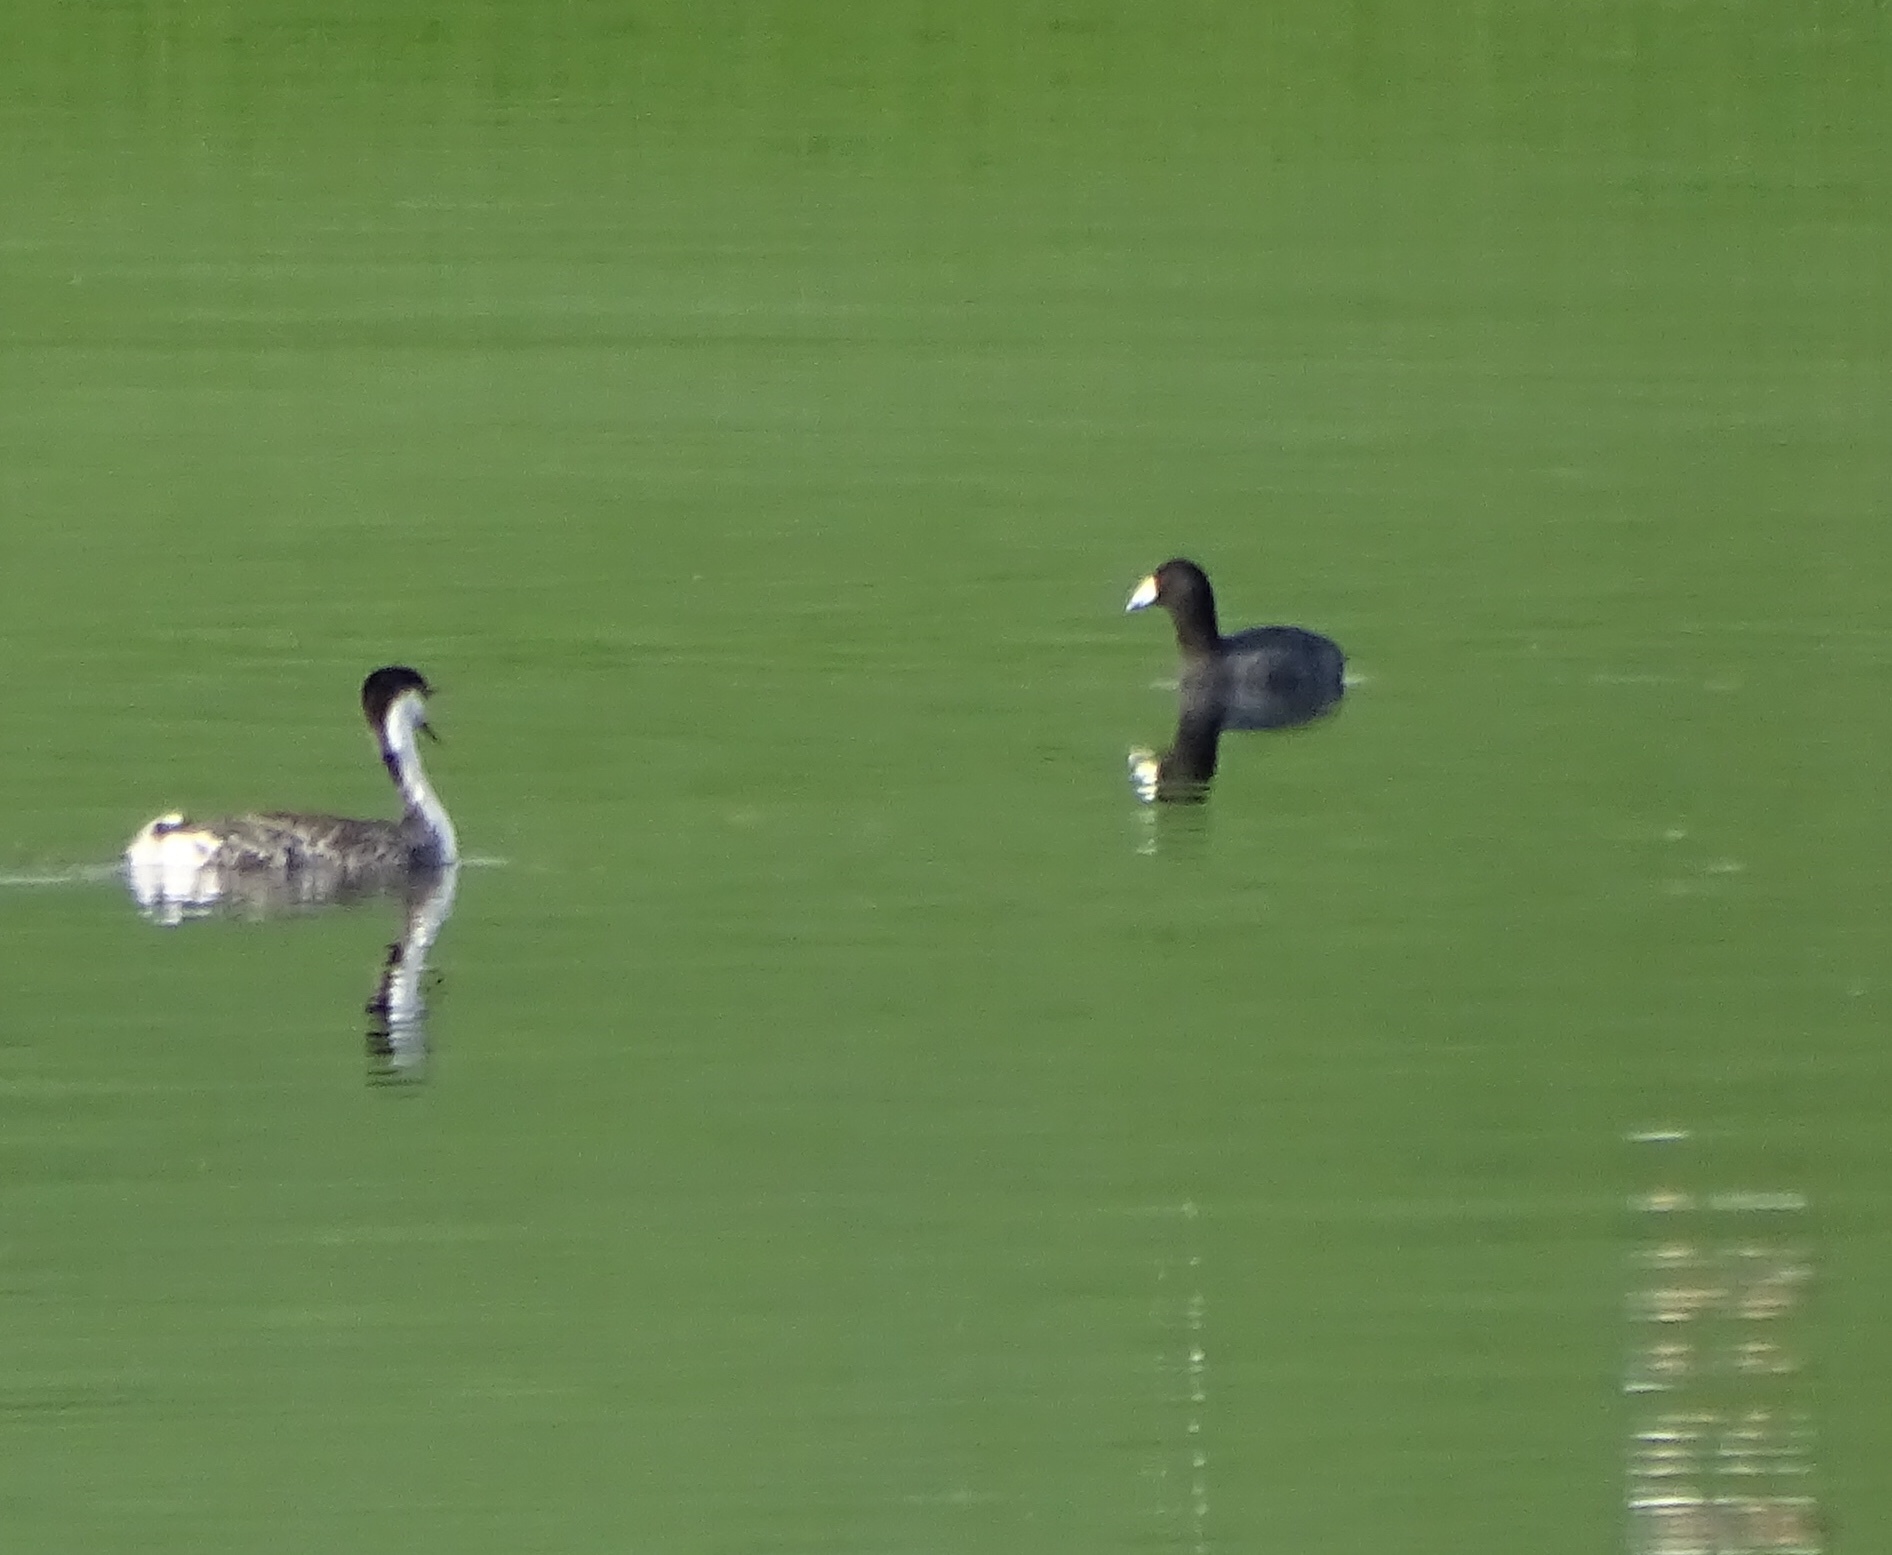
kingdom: Animalia
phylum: Chordata
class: Aves
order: Gruiformes
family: Rallidae
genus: Fulica
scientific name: Fulica americana
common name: American coot
